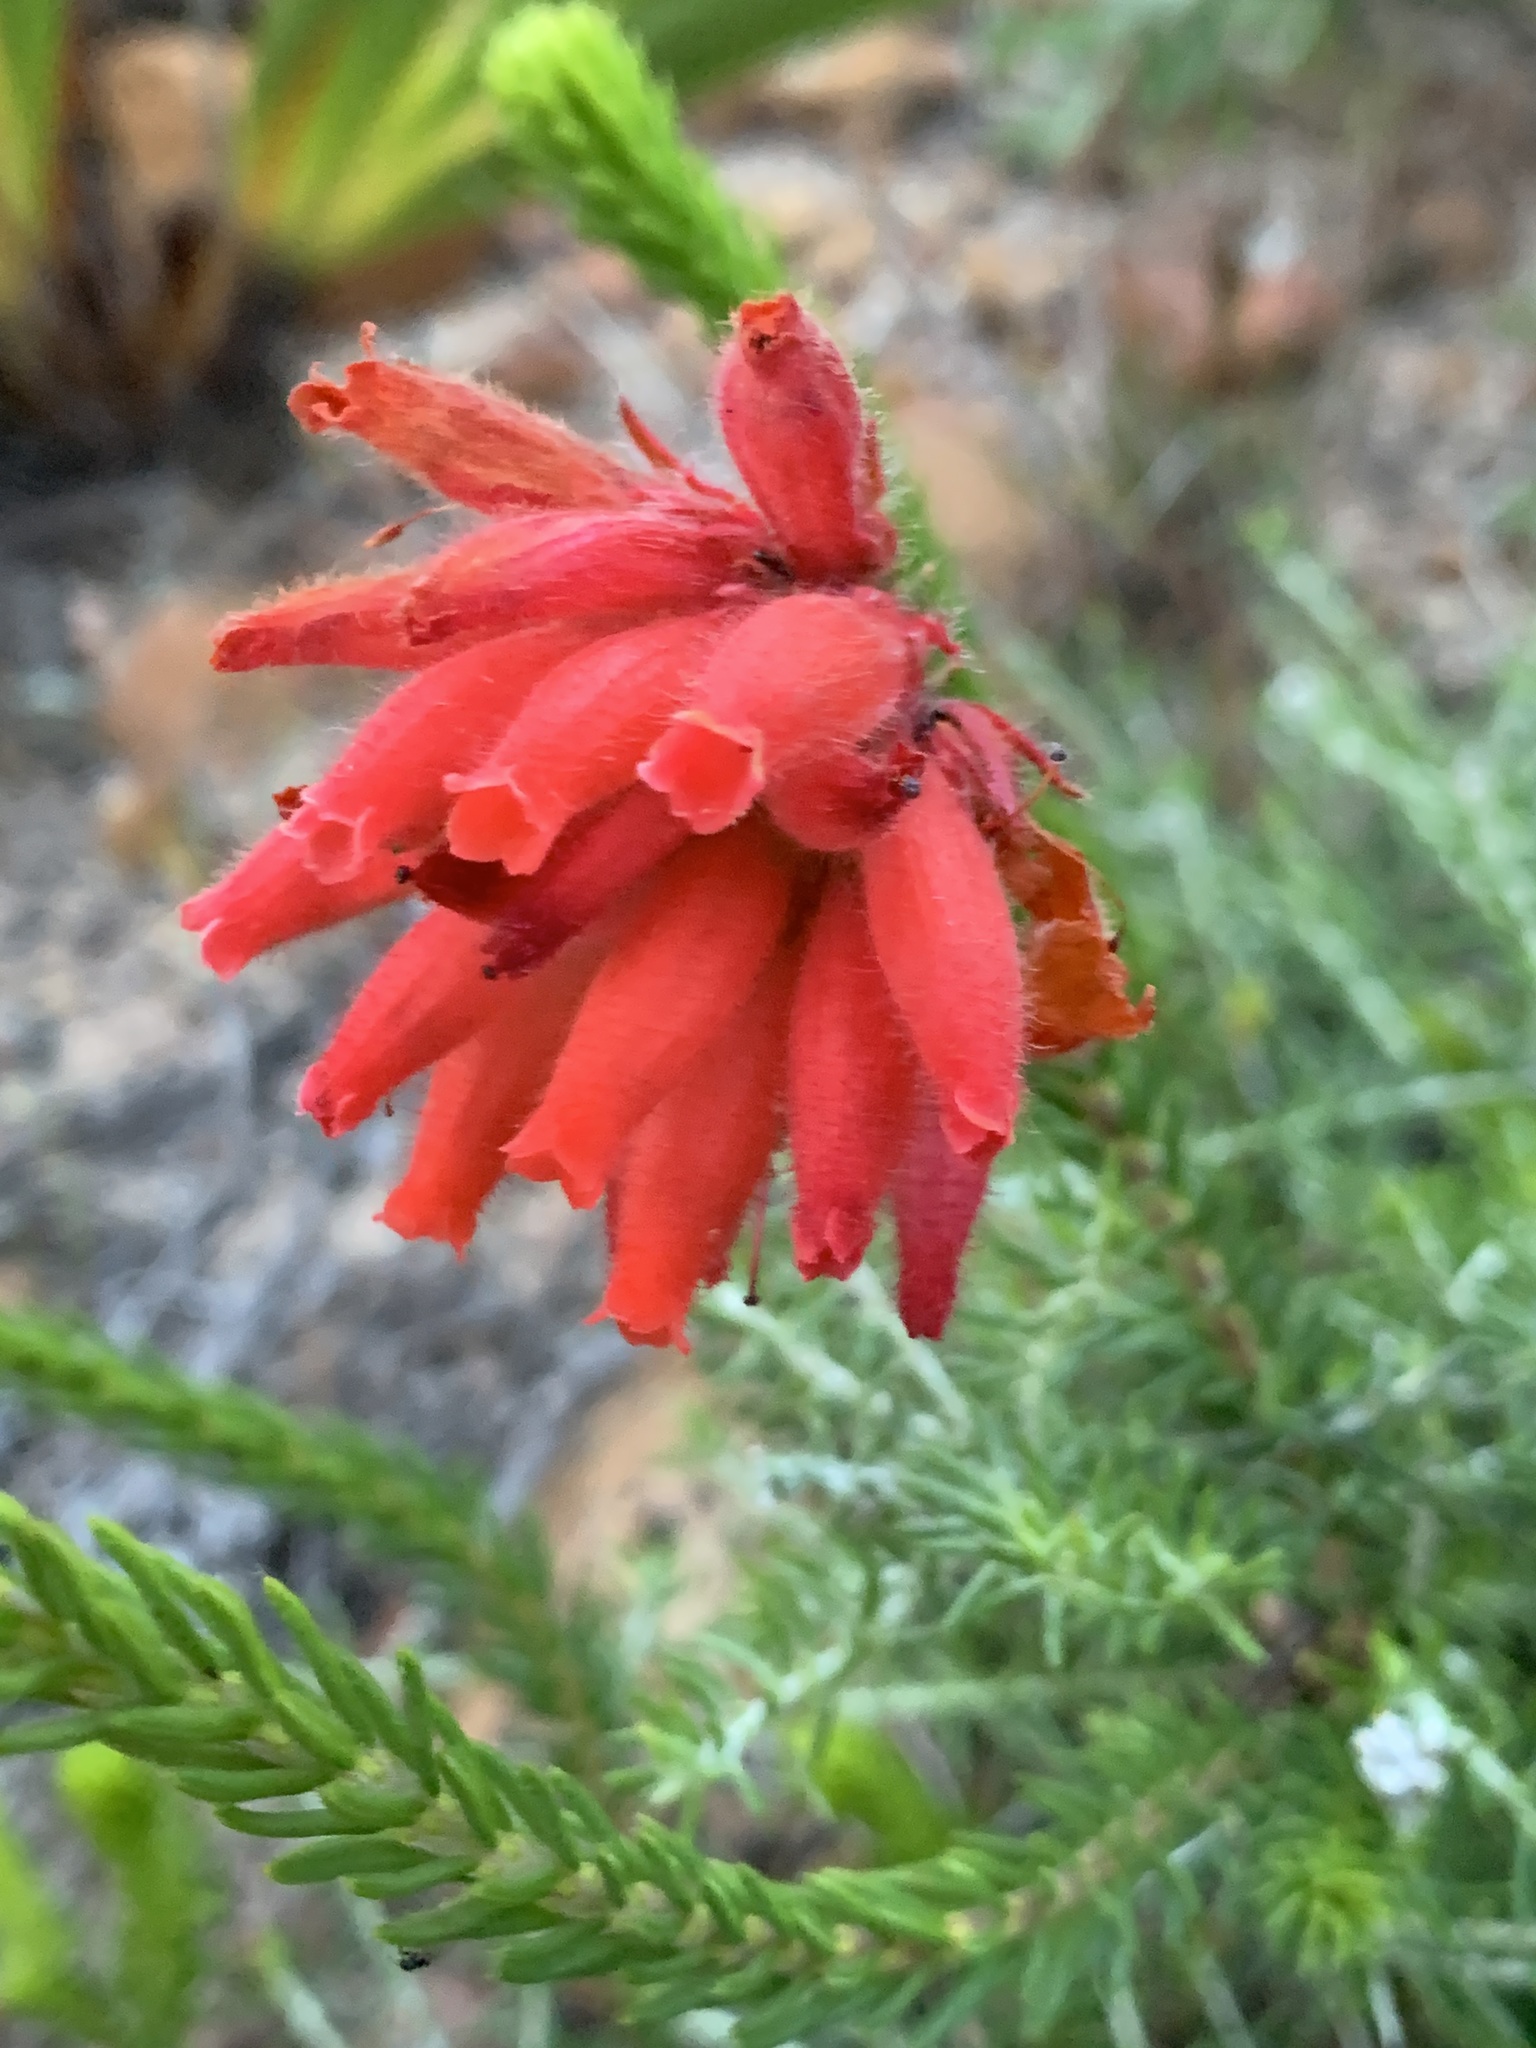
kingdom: Plantae
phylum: Tracheophyta
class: Magnoliopsida
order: Ericales
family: Ericaceae
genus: Erica
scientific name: Erica cerinthoides
